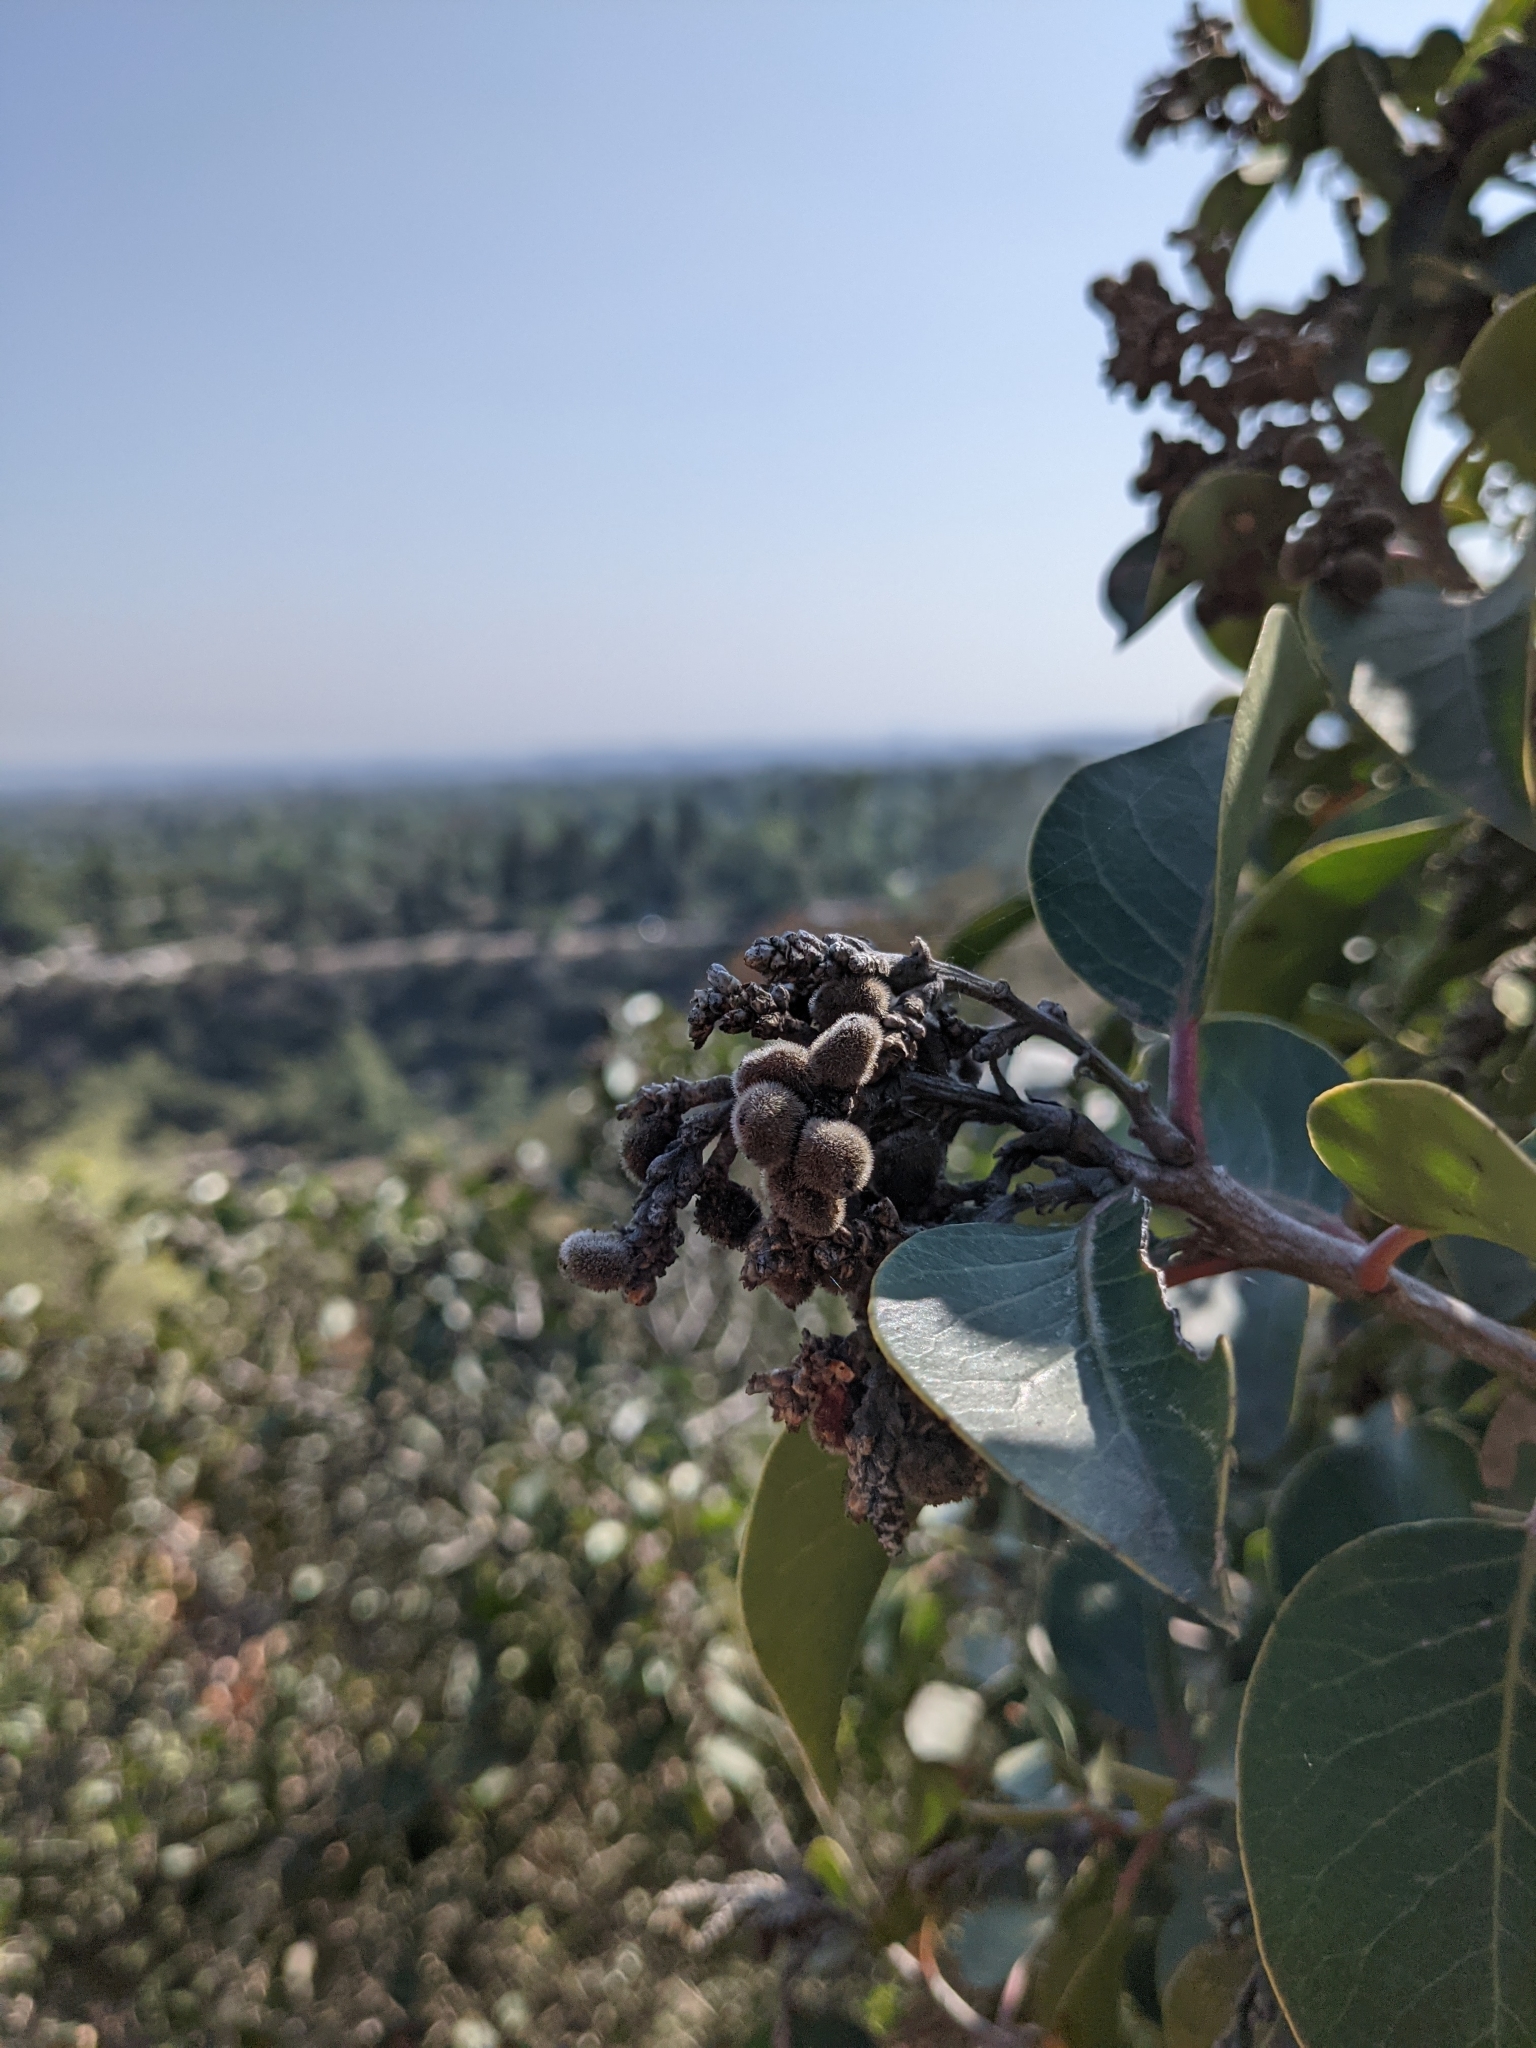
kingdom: Plantae
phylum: Tracheophyta
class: Magnoliopsida
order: Sapindales
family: Anacardiaceae
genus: Rhus
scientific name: Rhus ovata
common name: Sugar sumac
